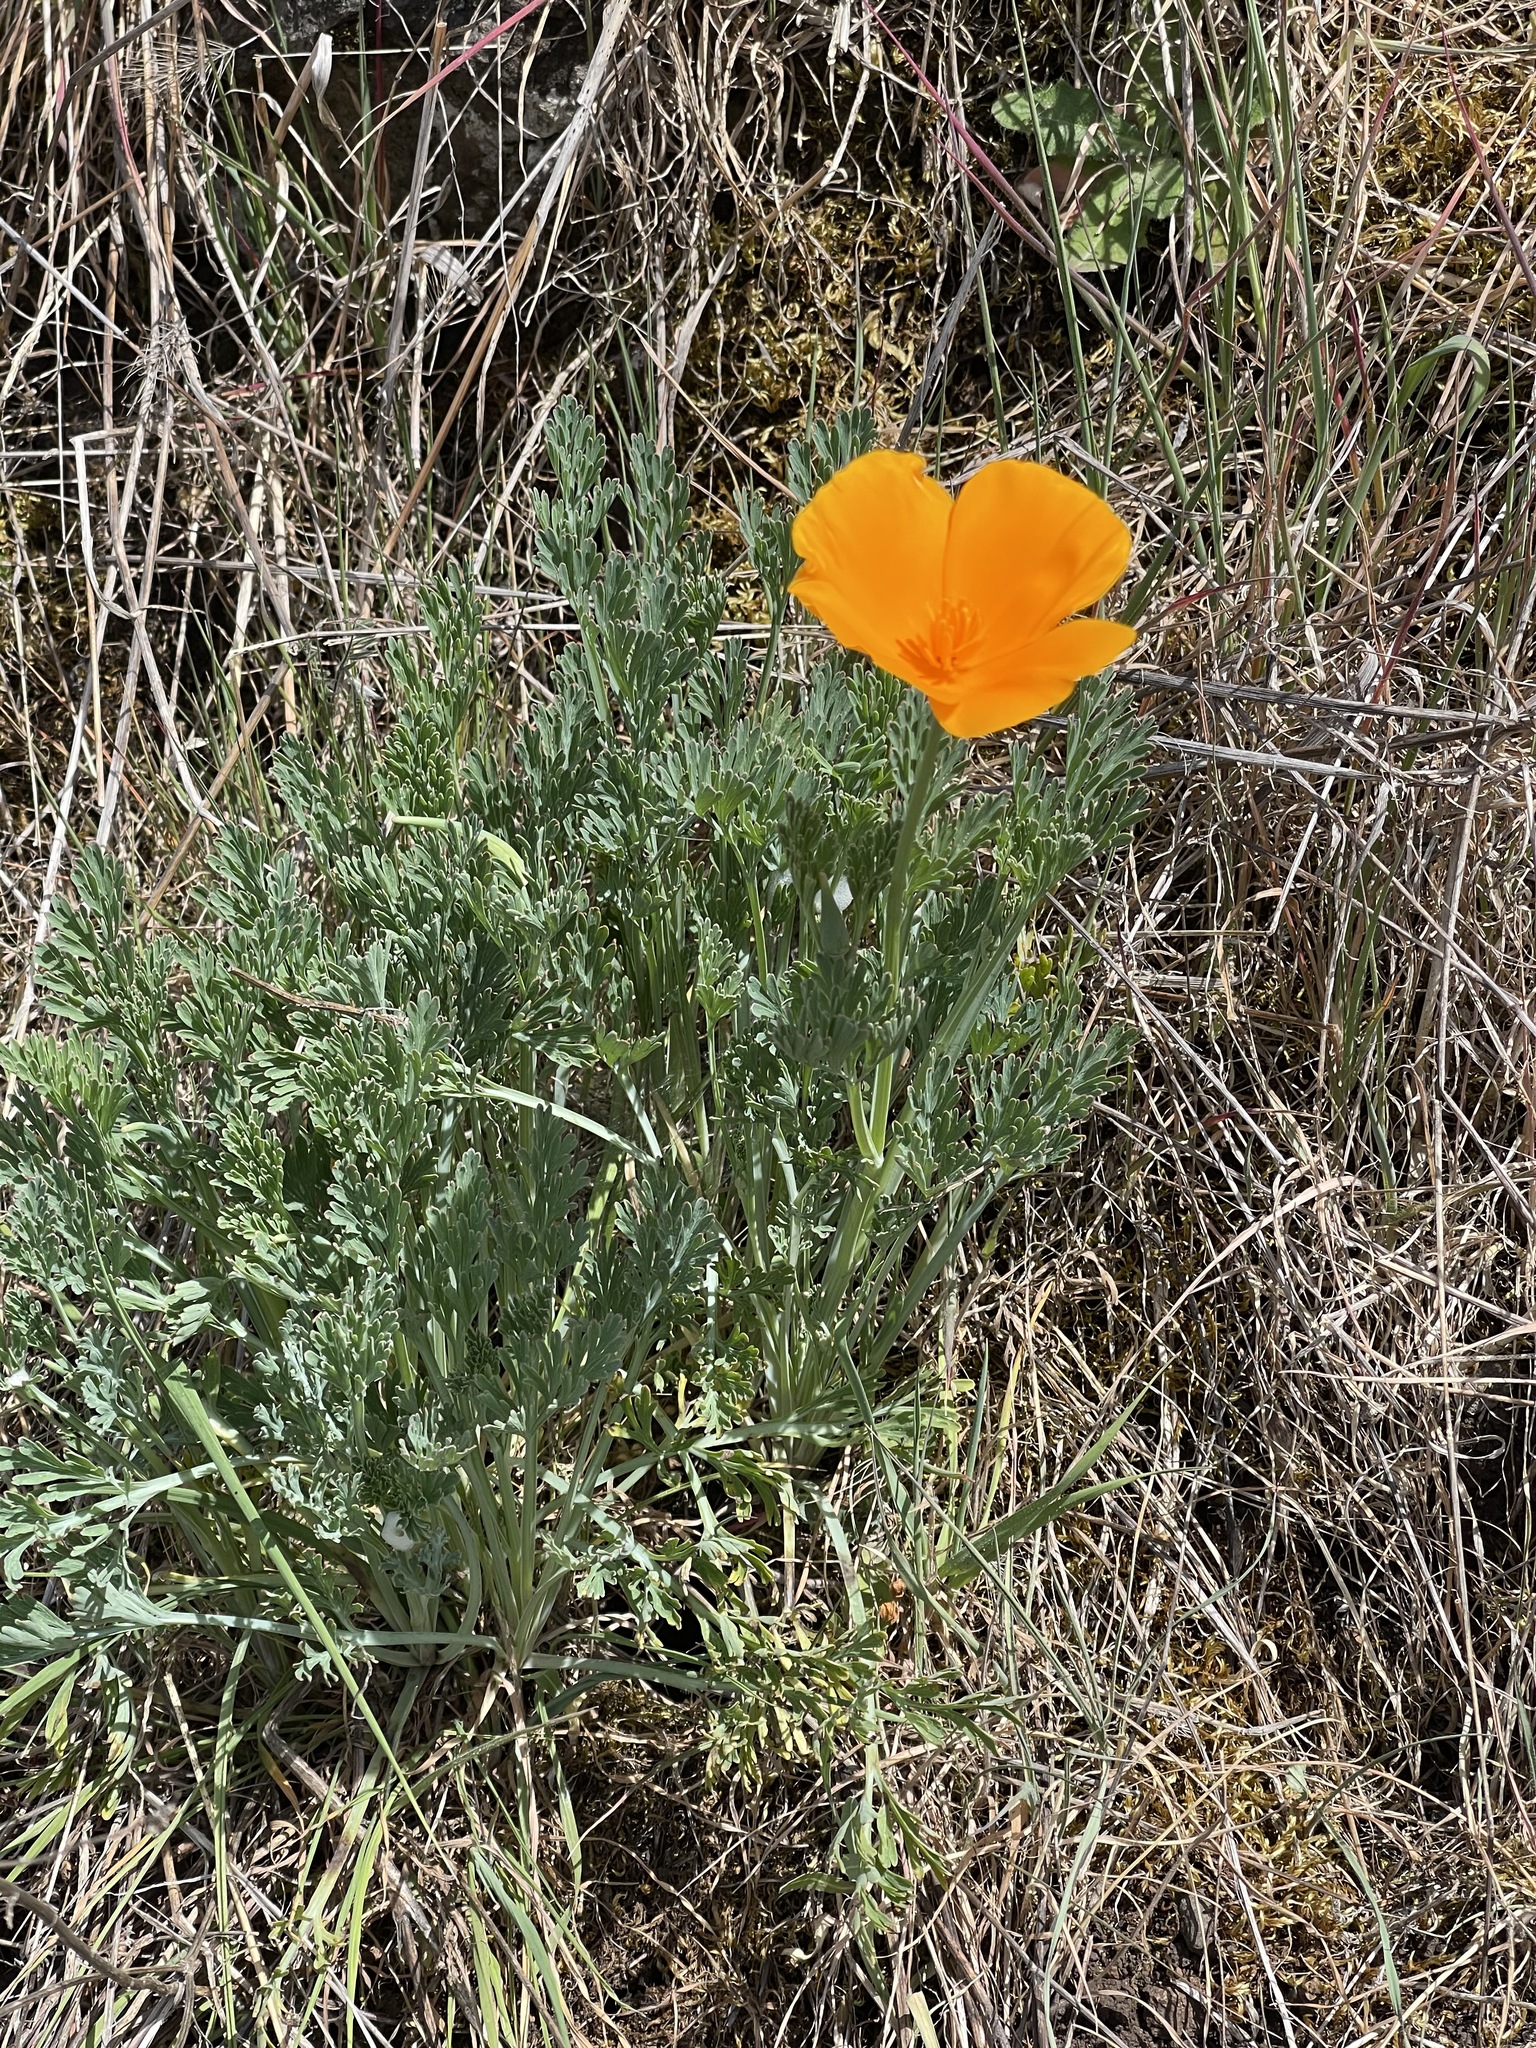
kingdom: Plantae
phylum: Tracheophyta
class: Magnoliopsida
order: Ranunculales
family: Papaveraceae
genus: Eschscholzia
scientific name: Eschscholzia californica
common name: California poppy
